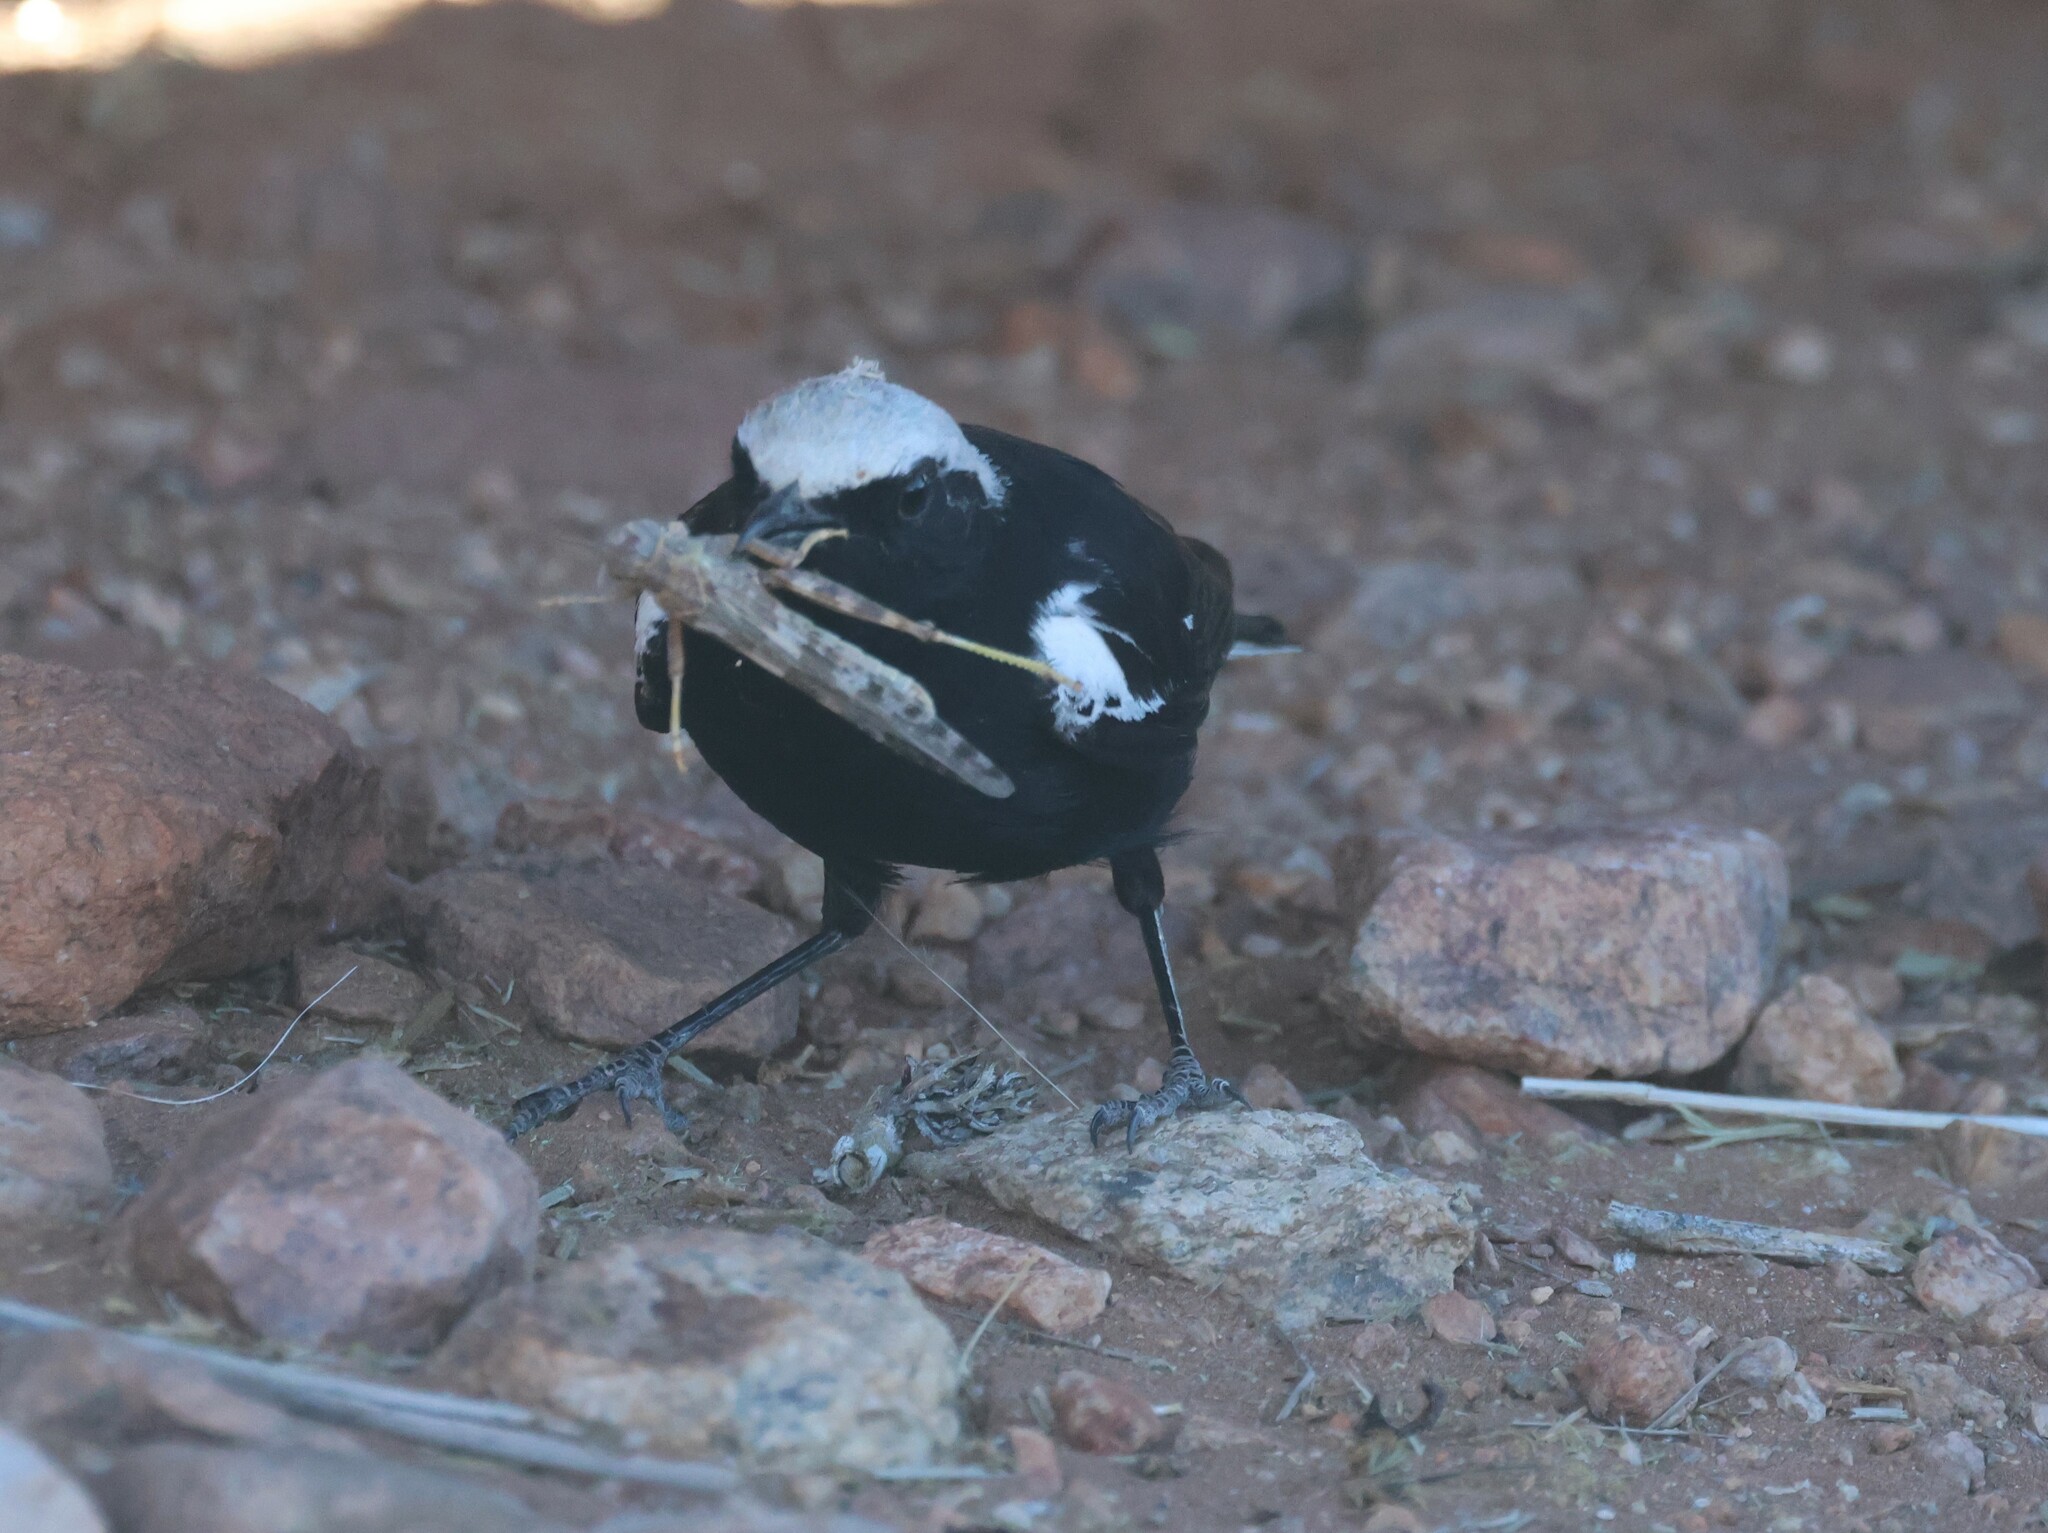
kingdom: Animalia
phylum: Chordata
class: Aves
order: Passeriformes
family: Muscicapidae
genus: Oenanthe
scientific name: Oenanthe monticola
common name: Mountain wheatear
